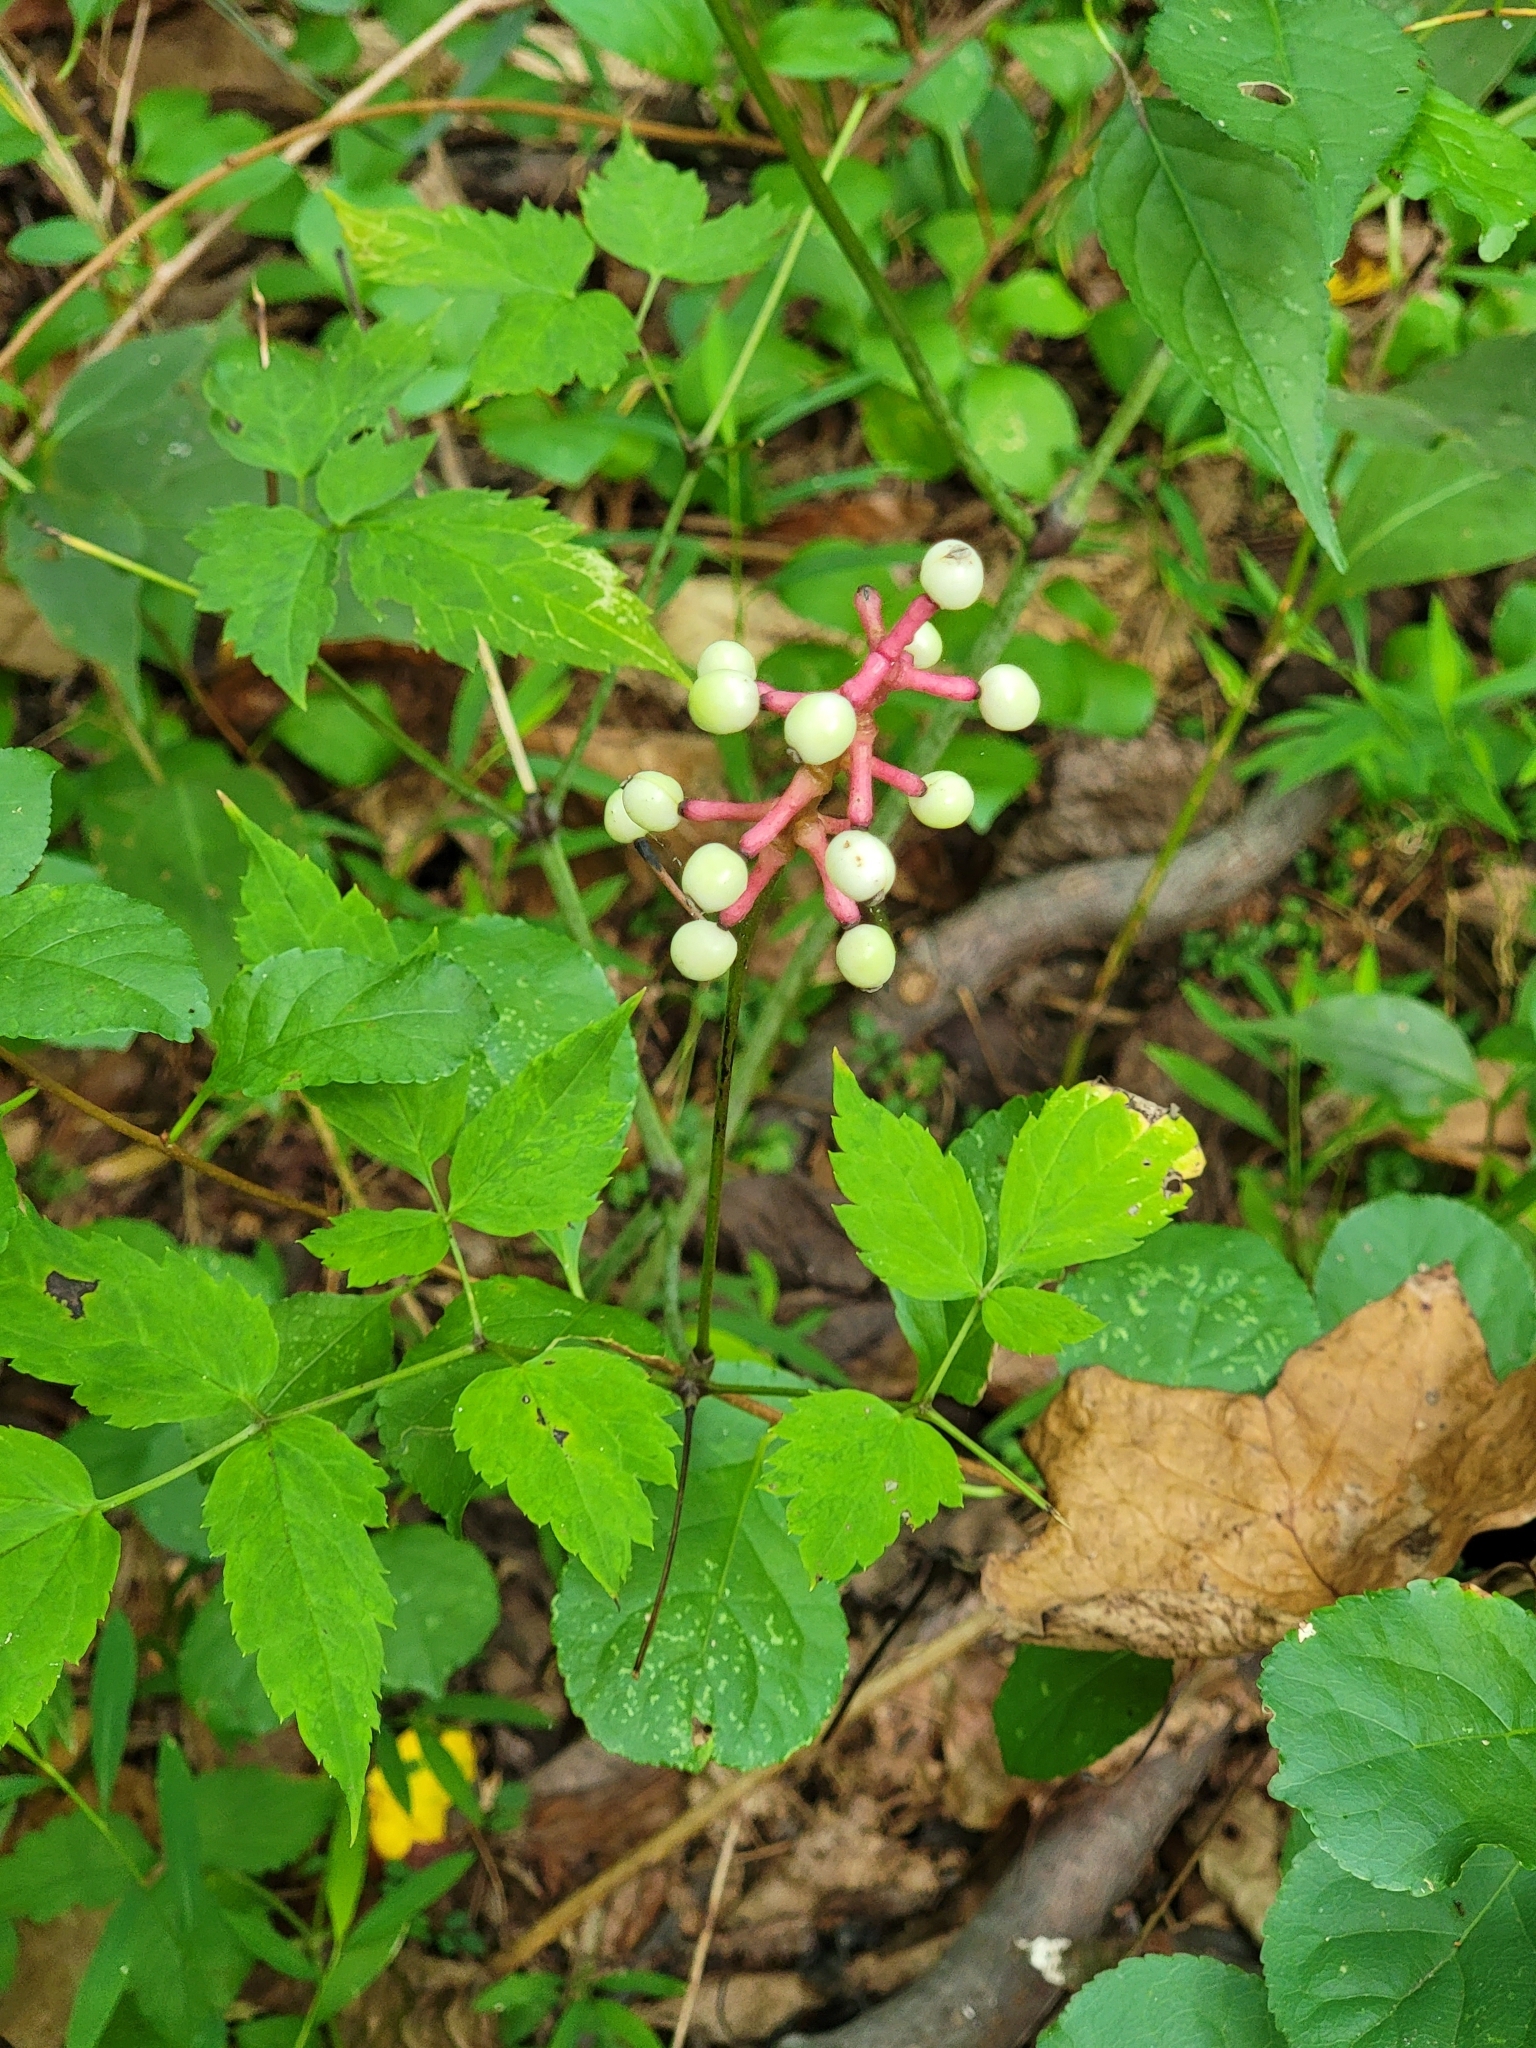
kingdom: Plantae
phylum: Tracheophyta
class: Magnoliopsida
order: Ranunculales
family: Ranunculaceae
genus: Actaea
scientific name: Actaea pachypoda
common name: Doll's-eyes
